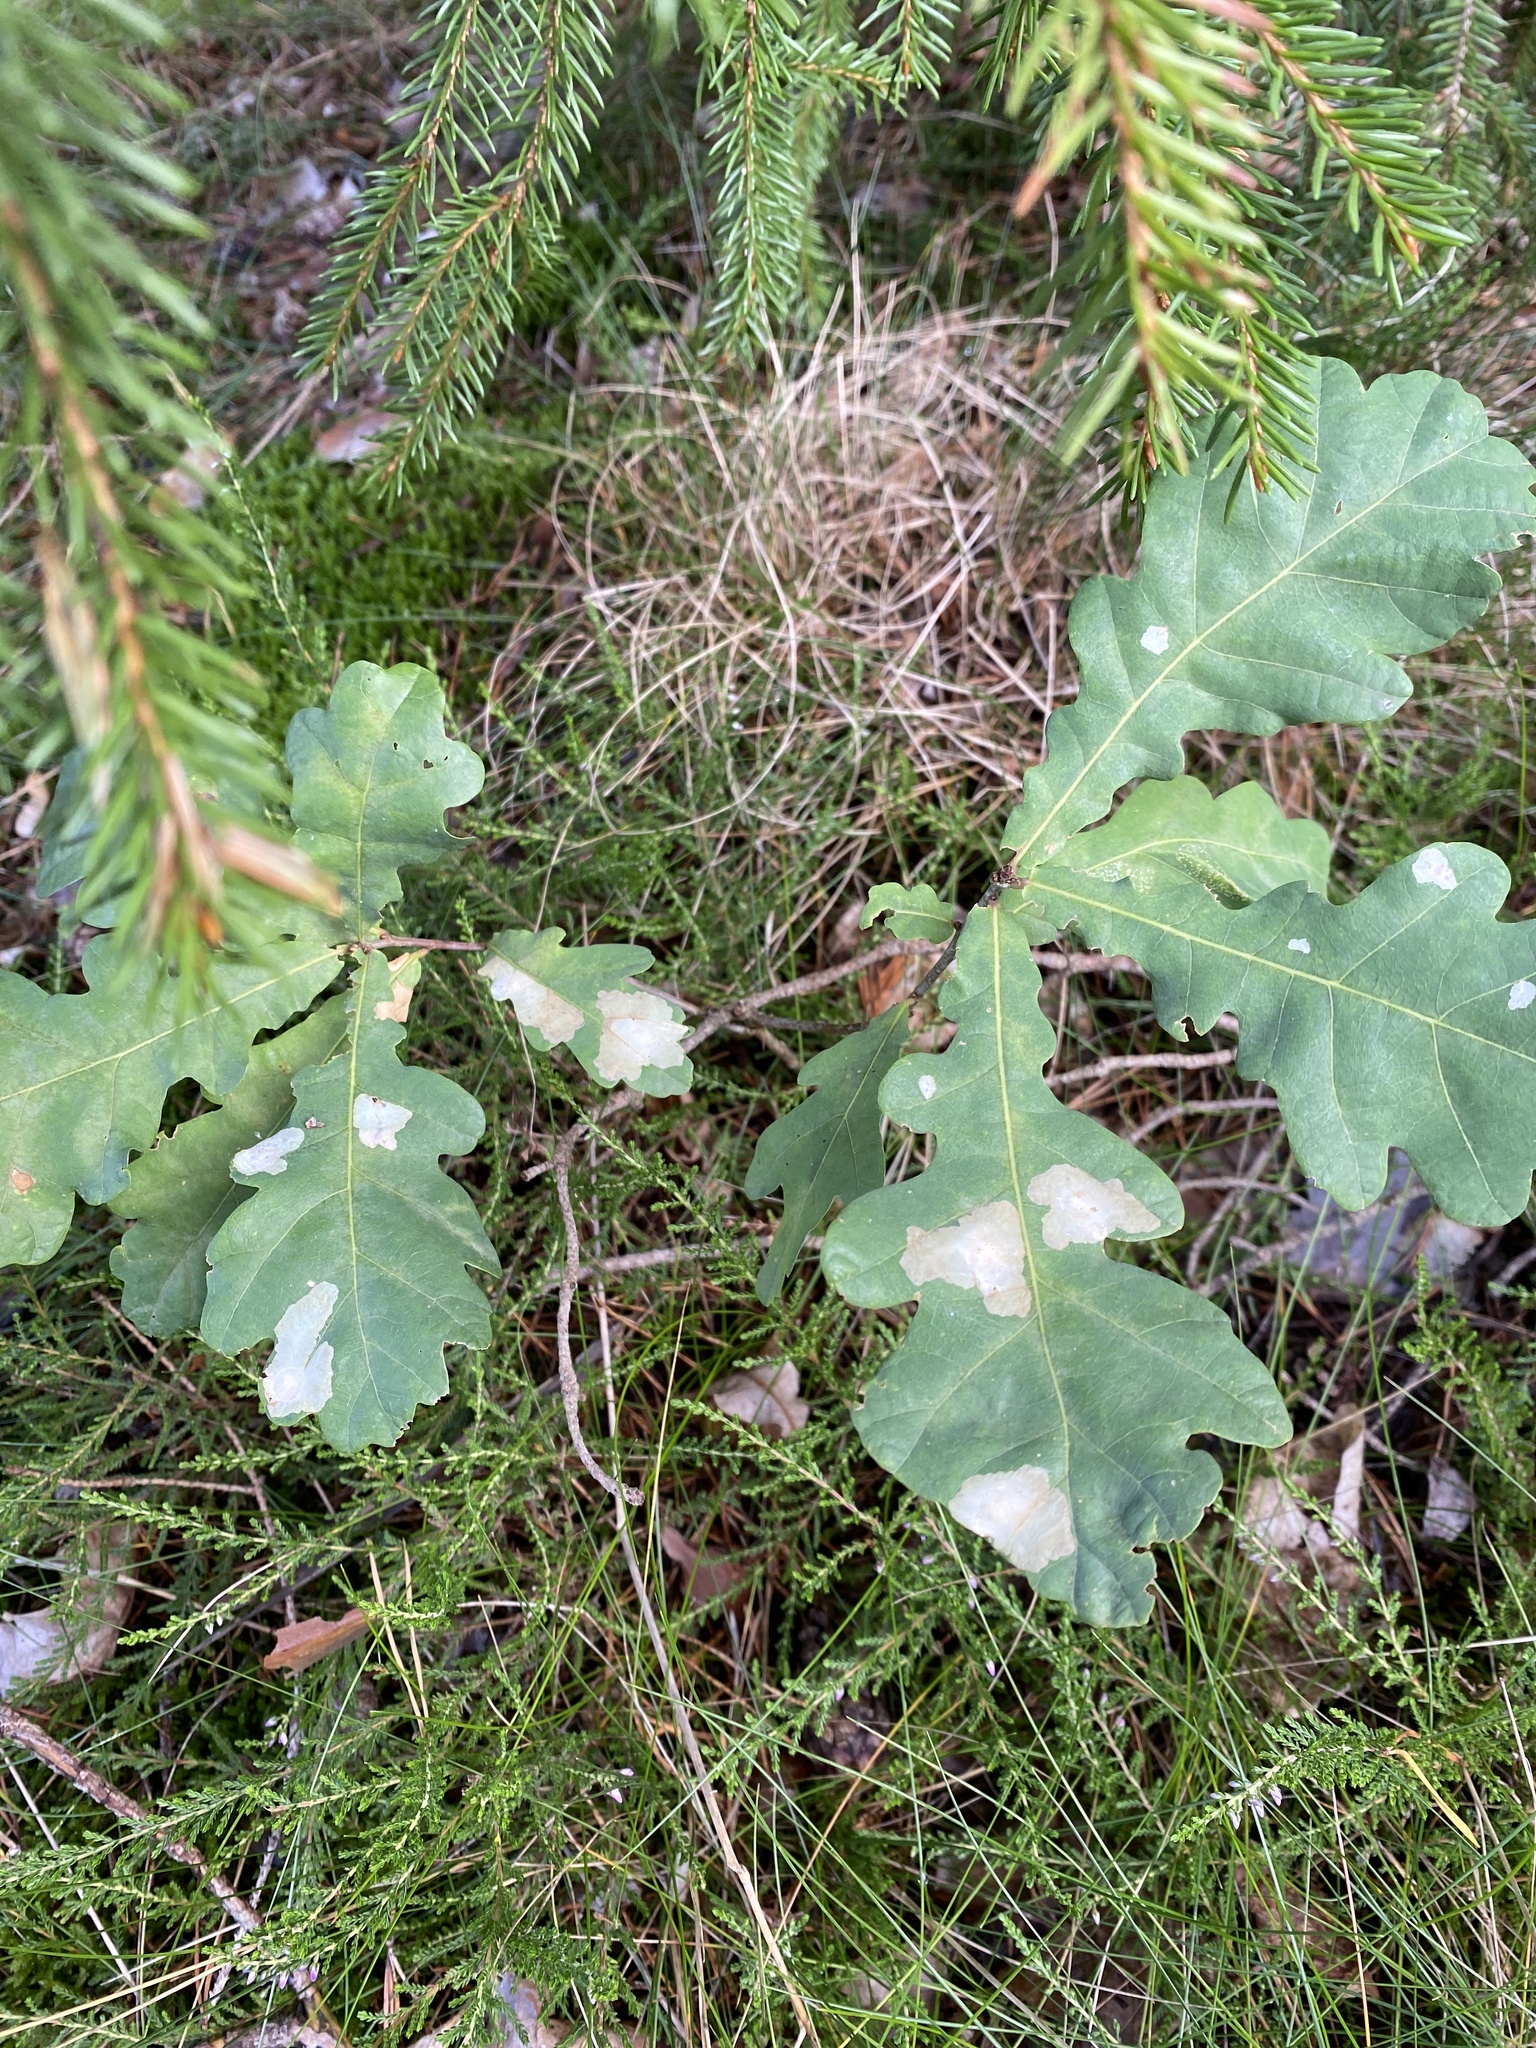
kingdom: Animalia
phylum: Arthropoda
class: Insecta
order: Lepidoptera
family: Tischeriidae
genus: Tischeria
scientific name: Tischeria ekebladella
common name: Oak carl
